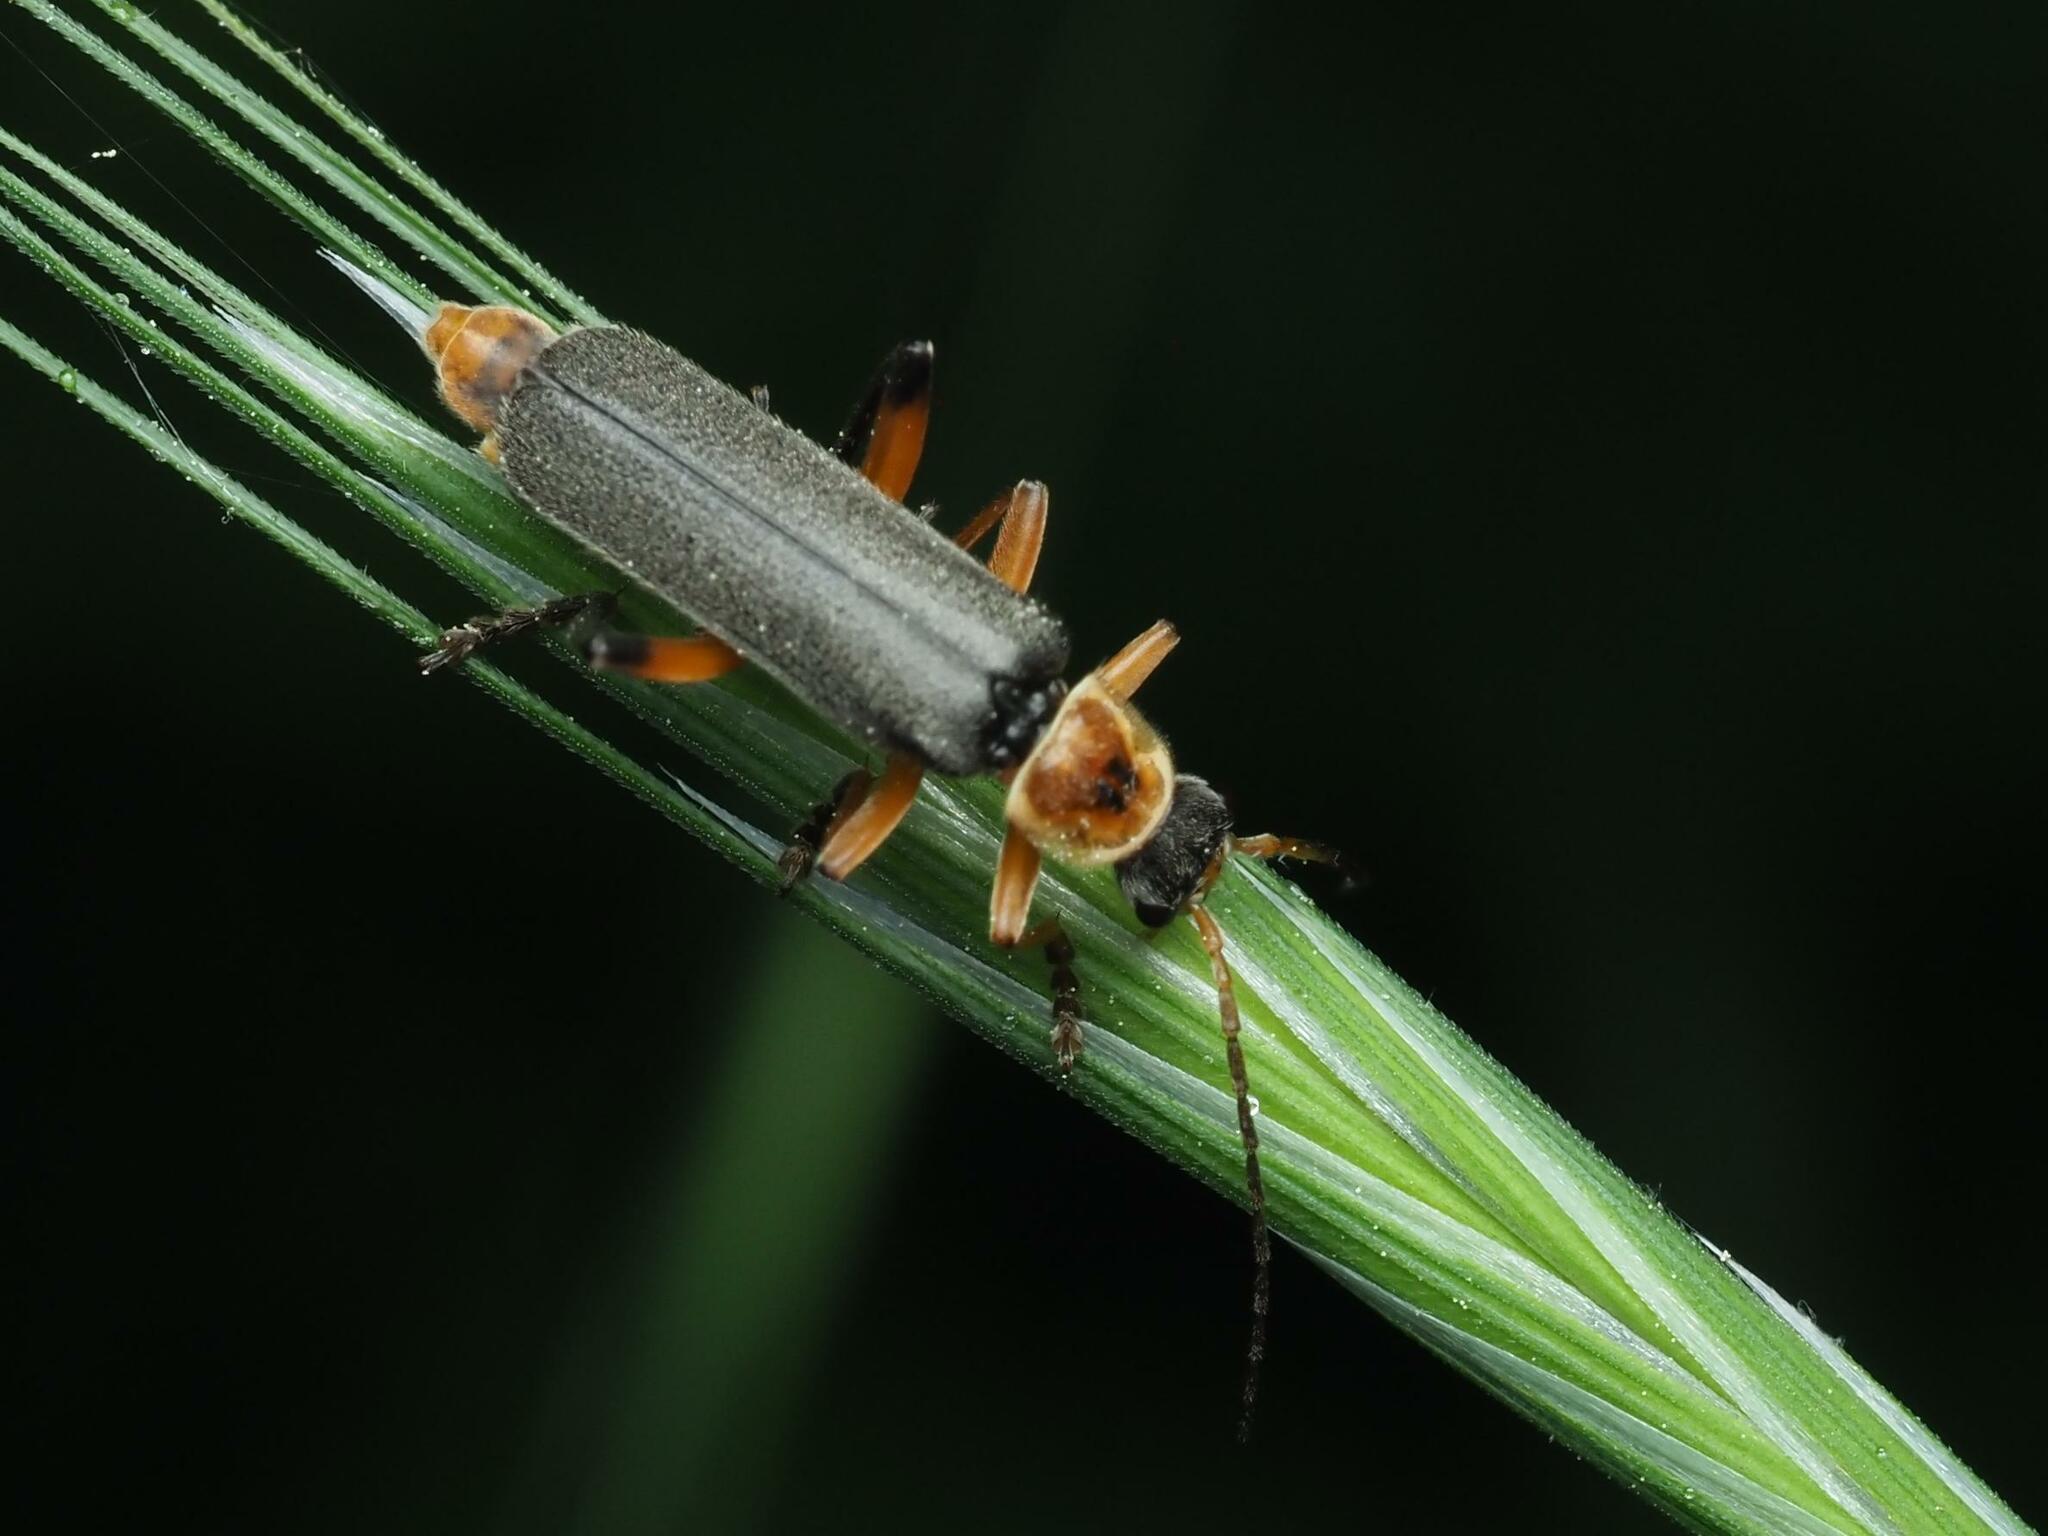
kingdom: Animalia
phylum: Arthropoda
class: Insecta
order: Coleoptera
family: Cantharidae
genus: Cantharis
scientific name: Cantharis nigricans
